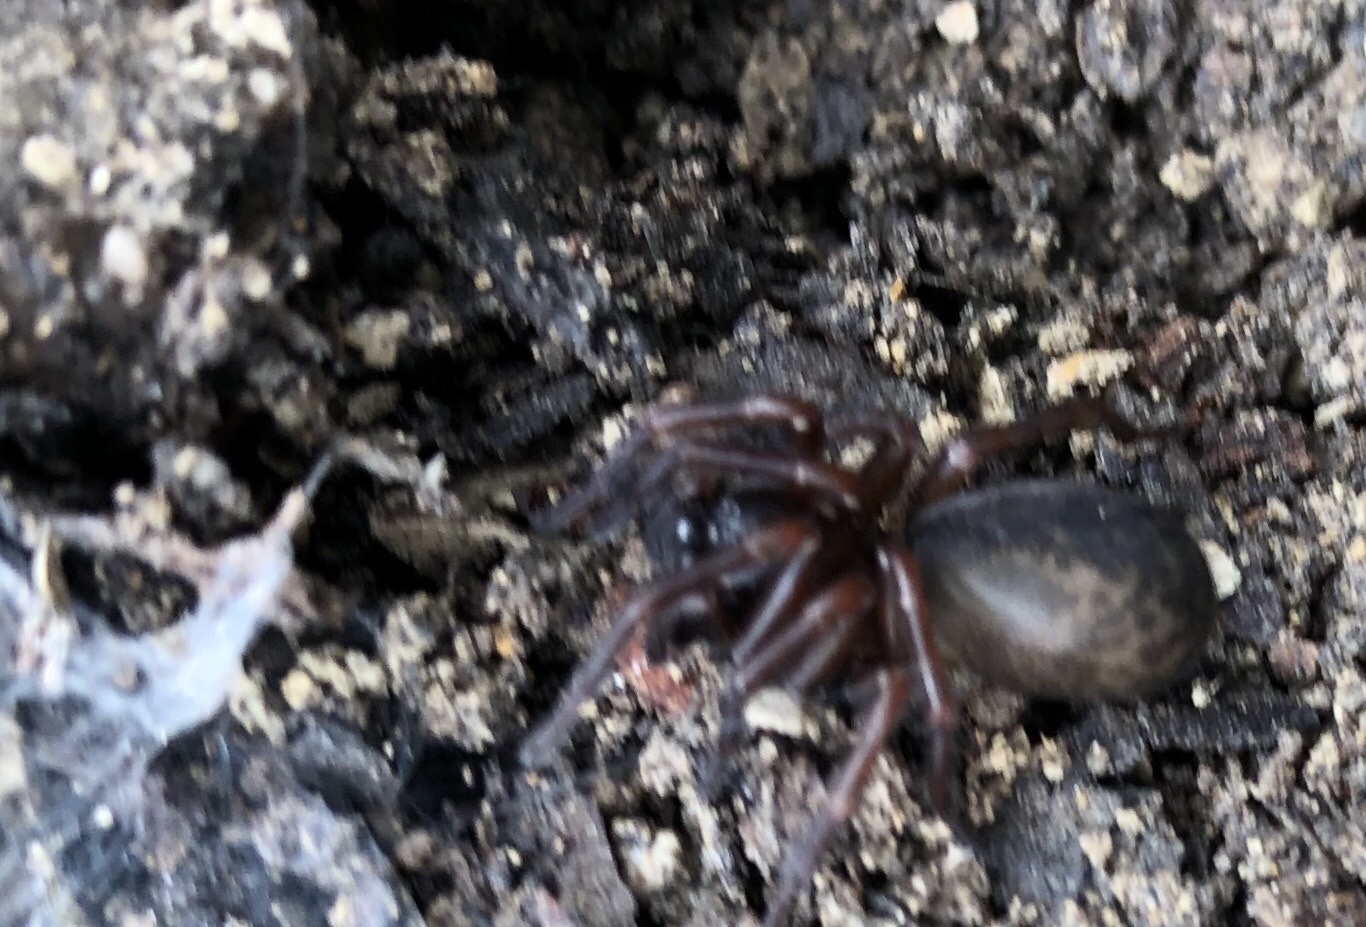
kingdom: Animalia
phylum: Arthropoda
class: Arachnida
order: Araneae
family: Agelenidae
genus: Coelotes
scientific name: Coelotes terrestris
